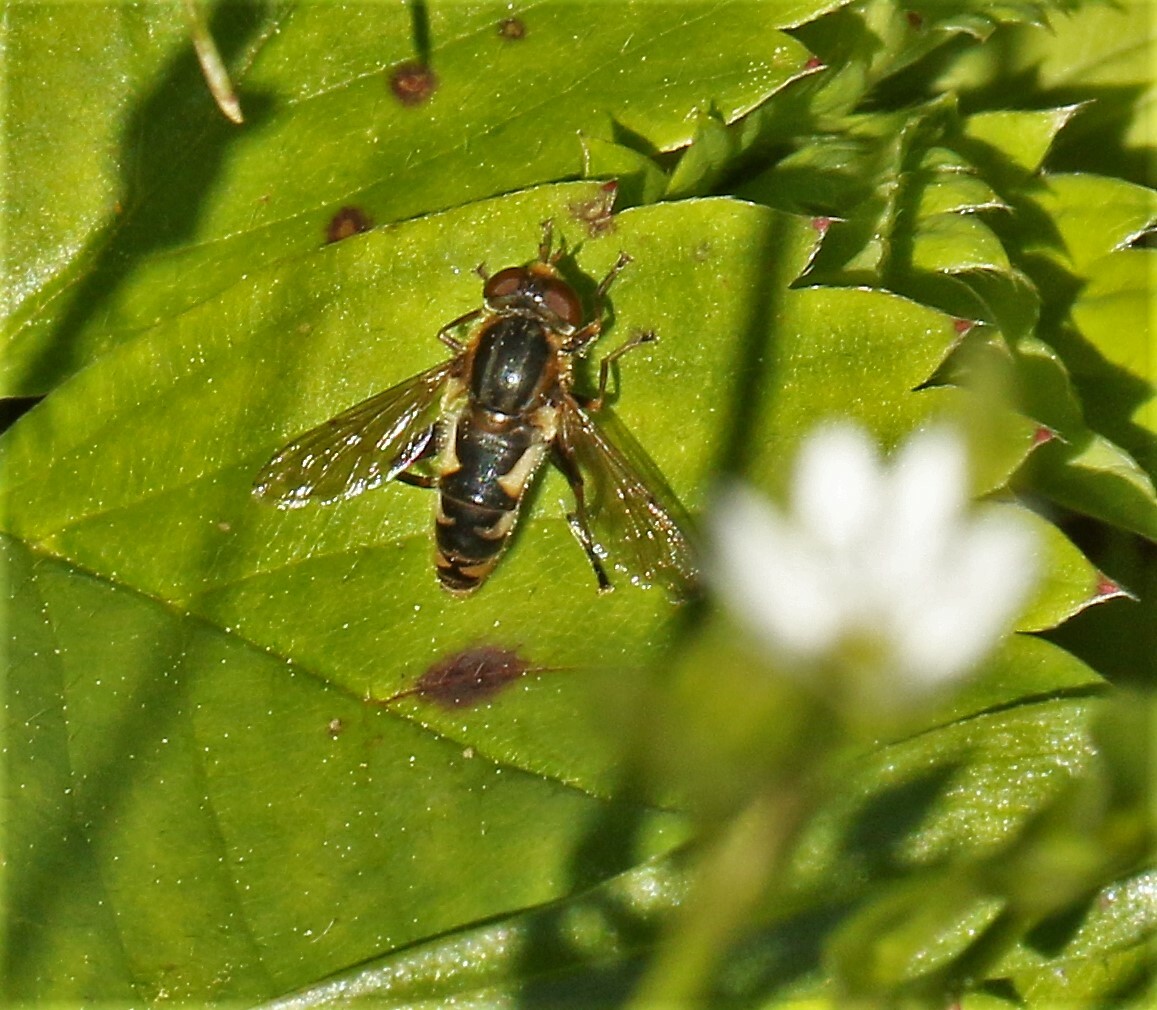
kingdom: Animalia
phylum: Arthropoda
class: Insecta
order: Diptera
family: Syrphidae
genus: Anasimyia
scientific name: Anasimyia
